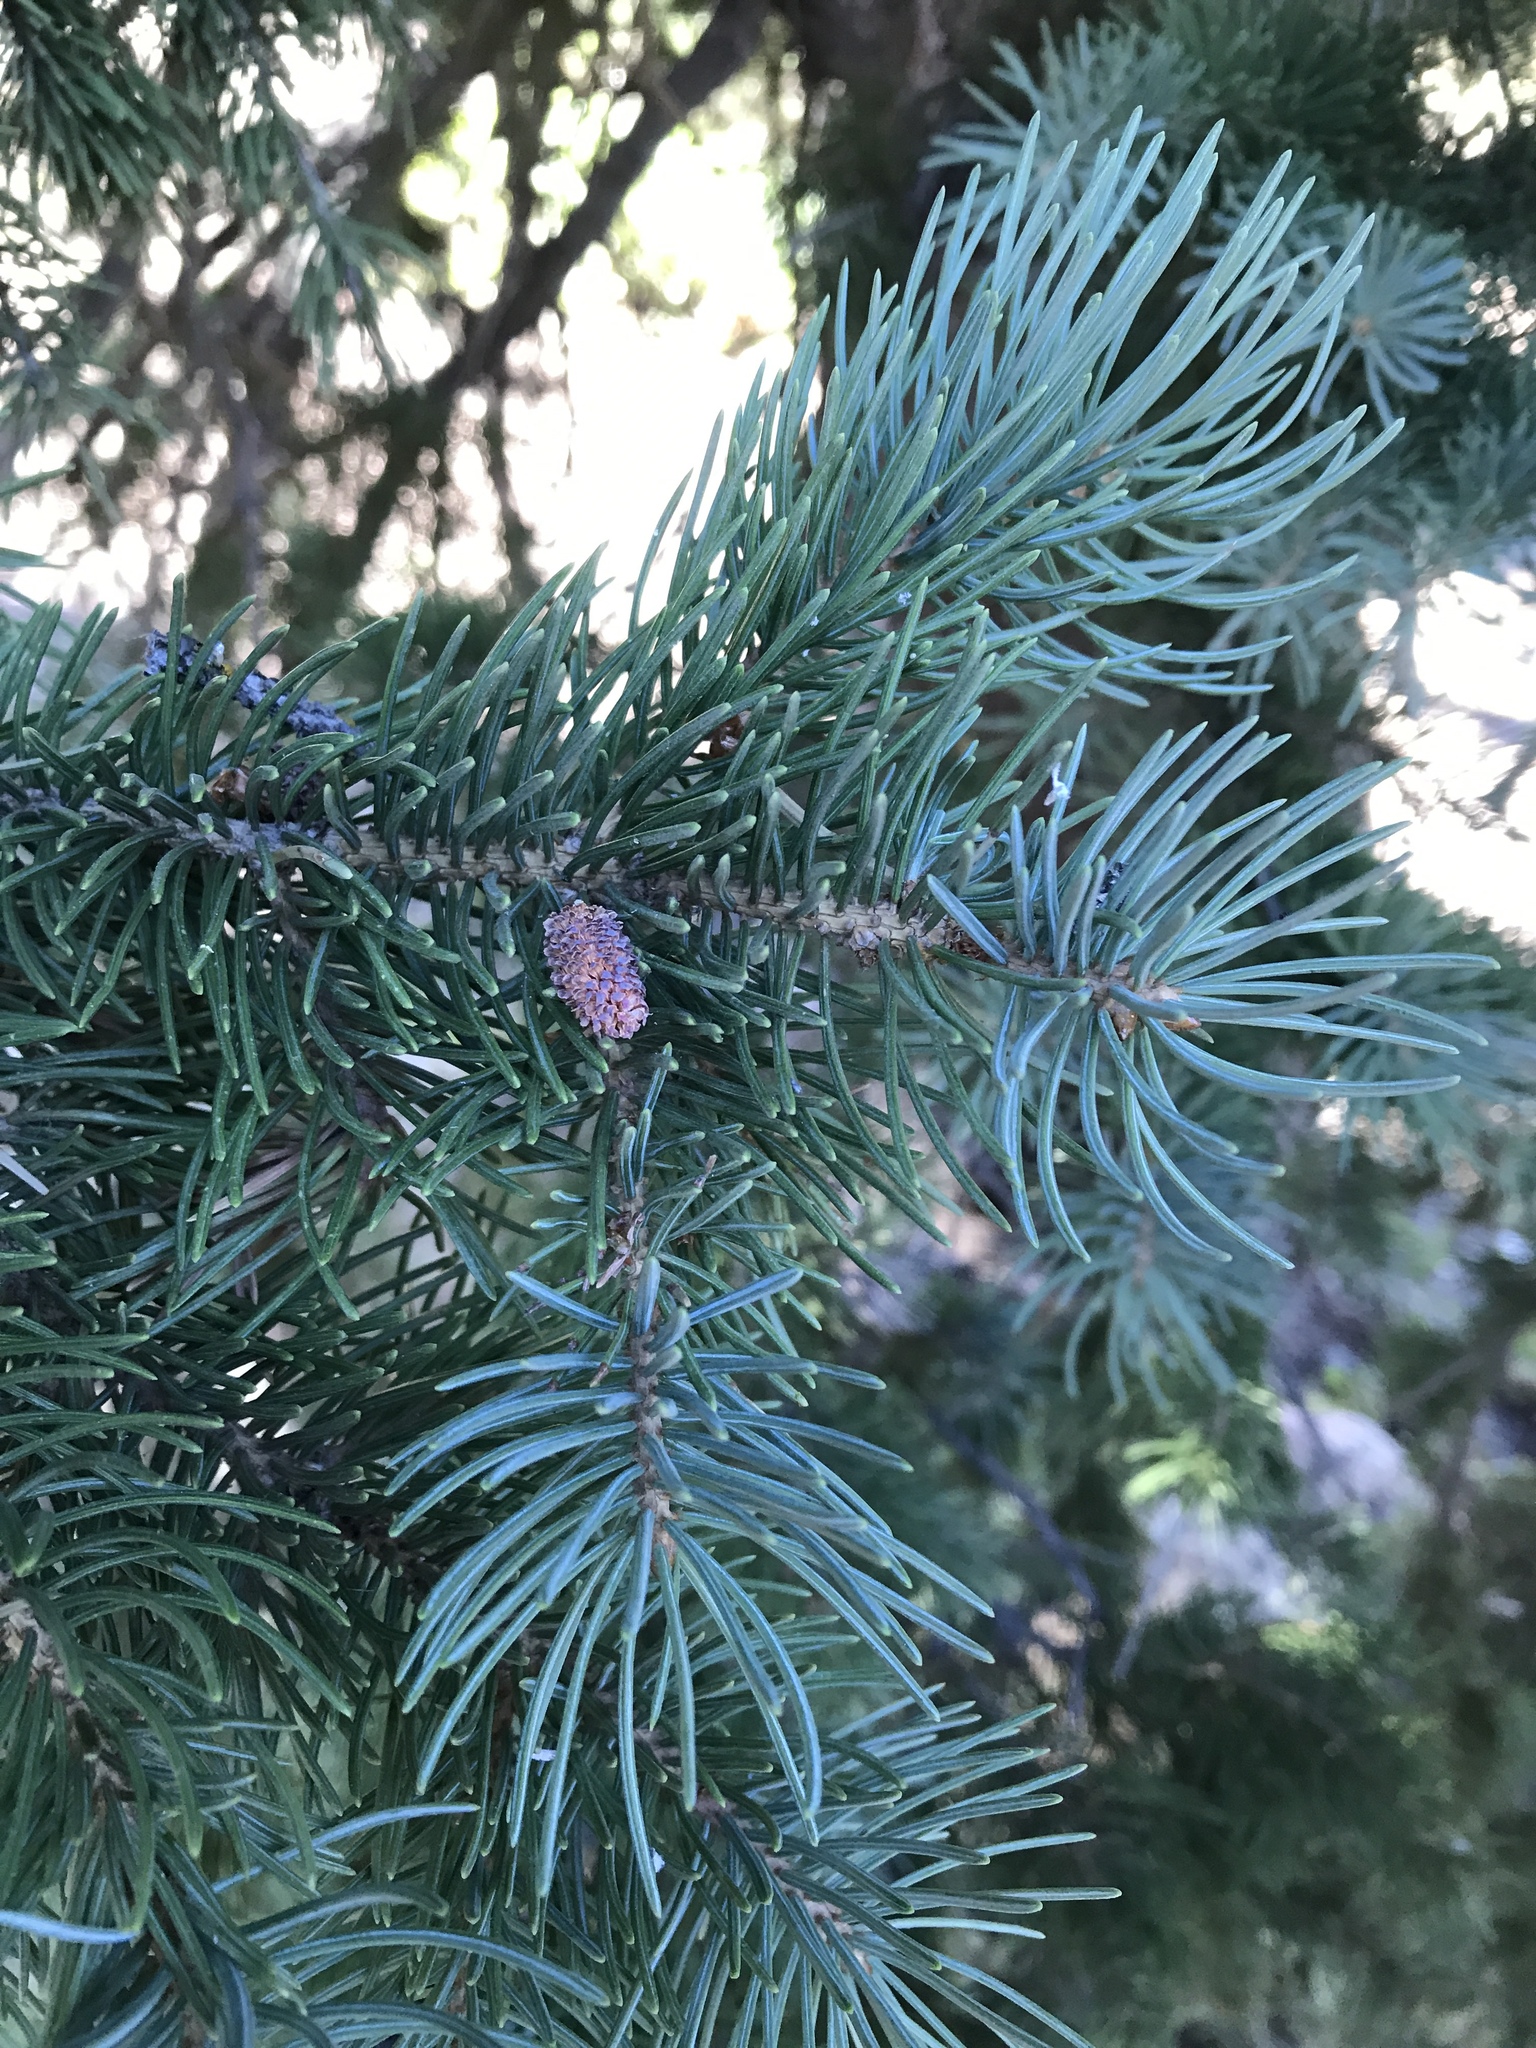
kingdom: Plantae
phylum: Tracheophyta
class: Pinopsida
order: Pinales
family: Pinaceae
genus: Picea
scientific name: Picea engelmannii
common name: Engelmann spruce
